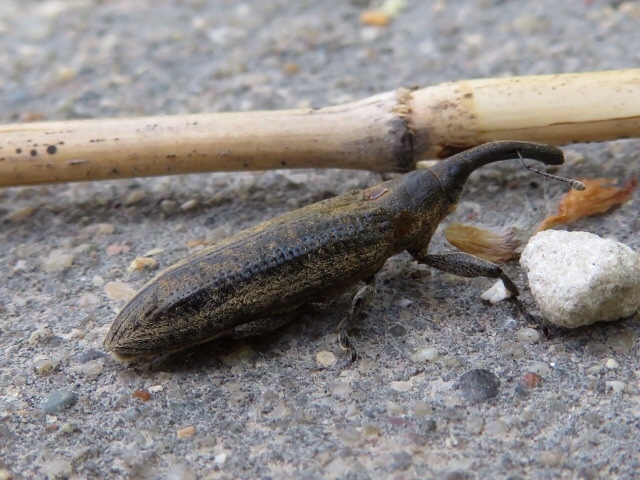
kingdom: Animalia
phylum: Arthropoda
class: Insecta
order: Coleoptera
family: Curculionidae
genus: Lixus
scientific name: Lixus macer
